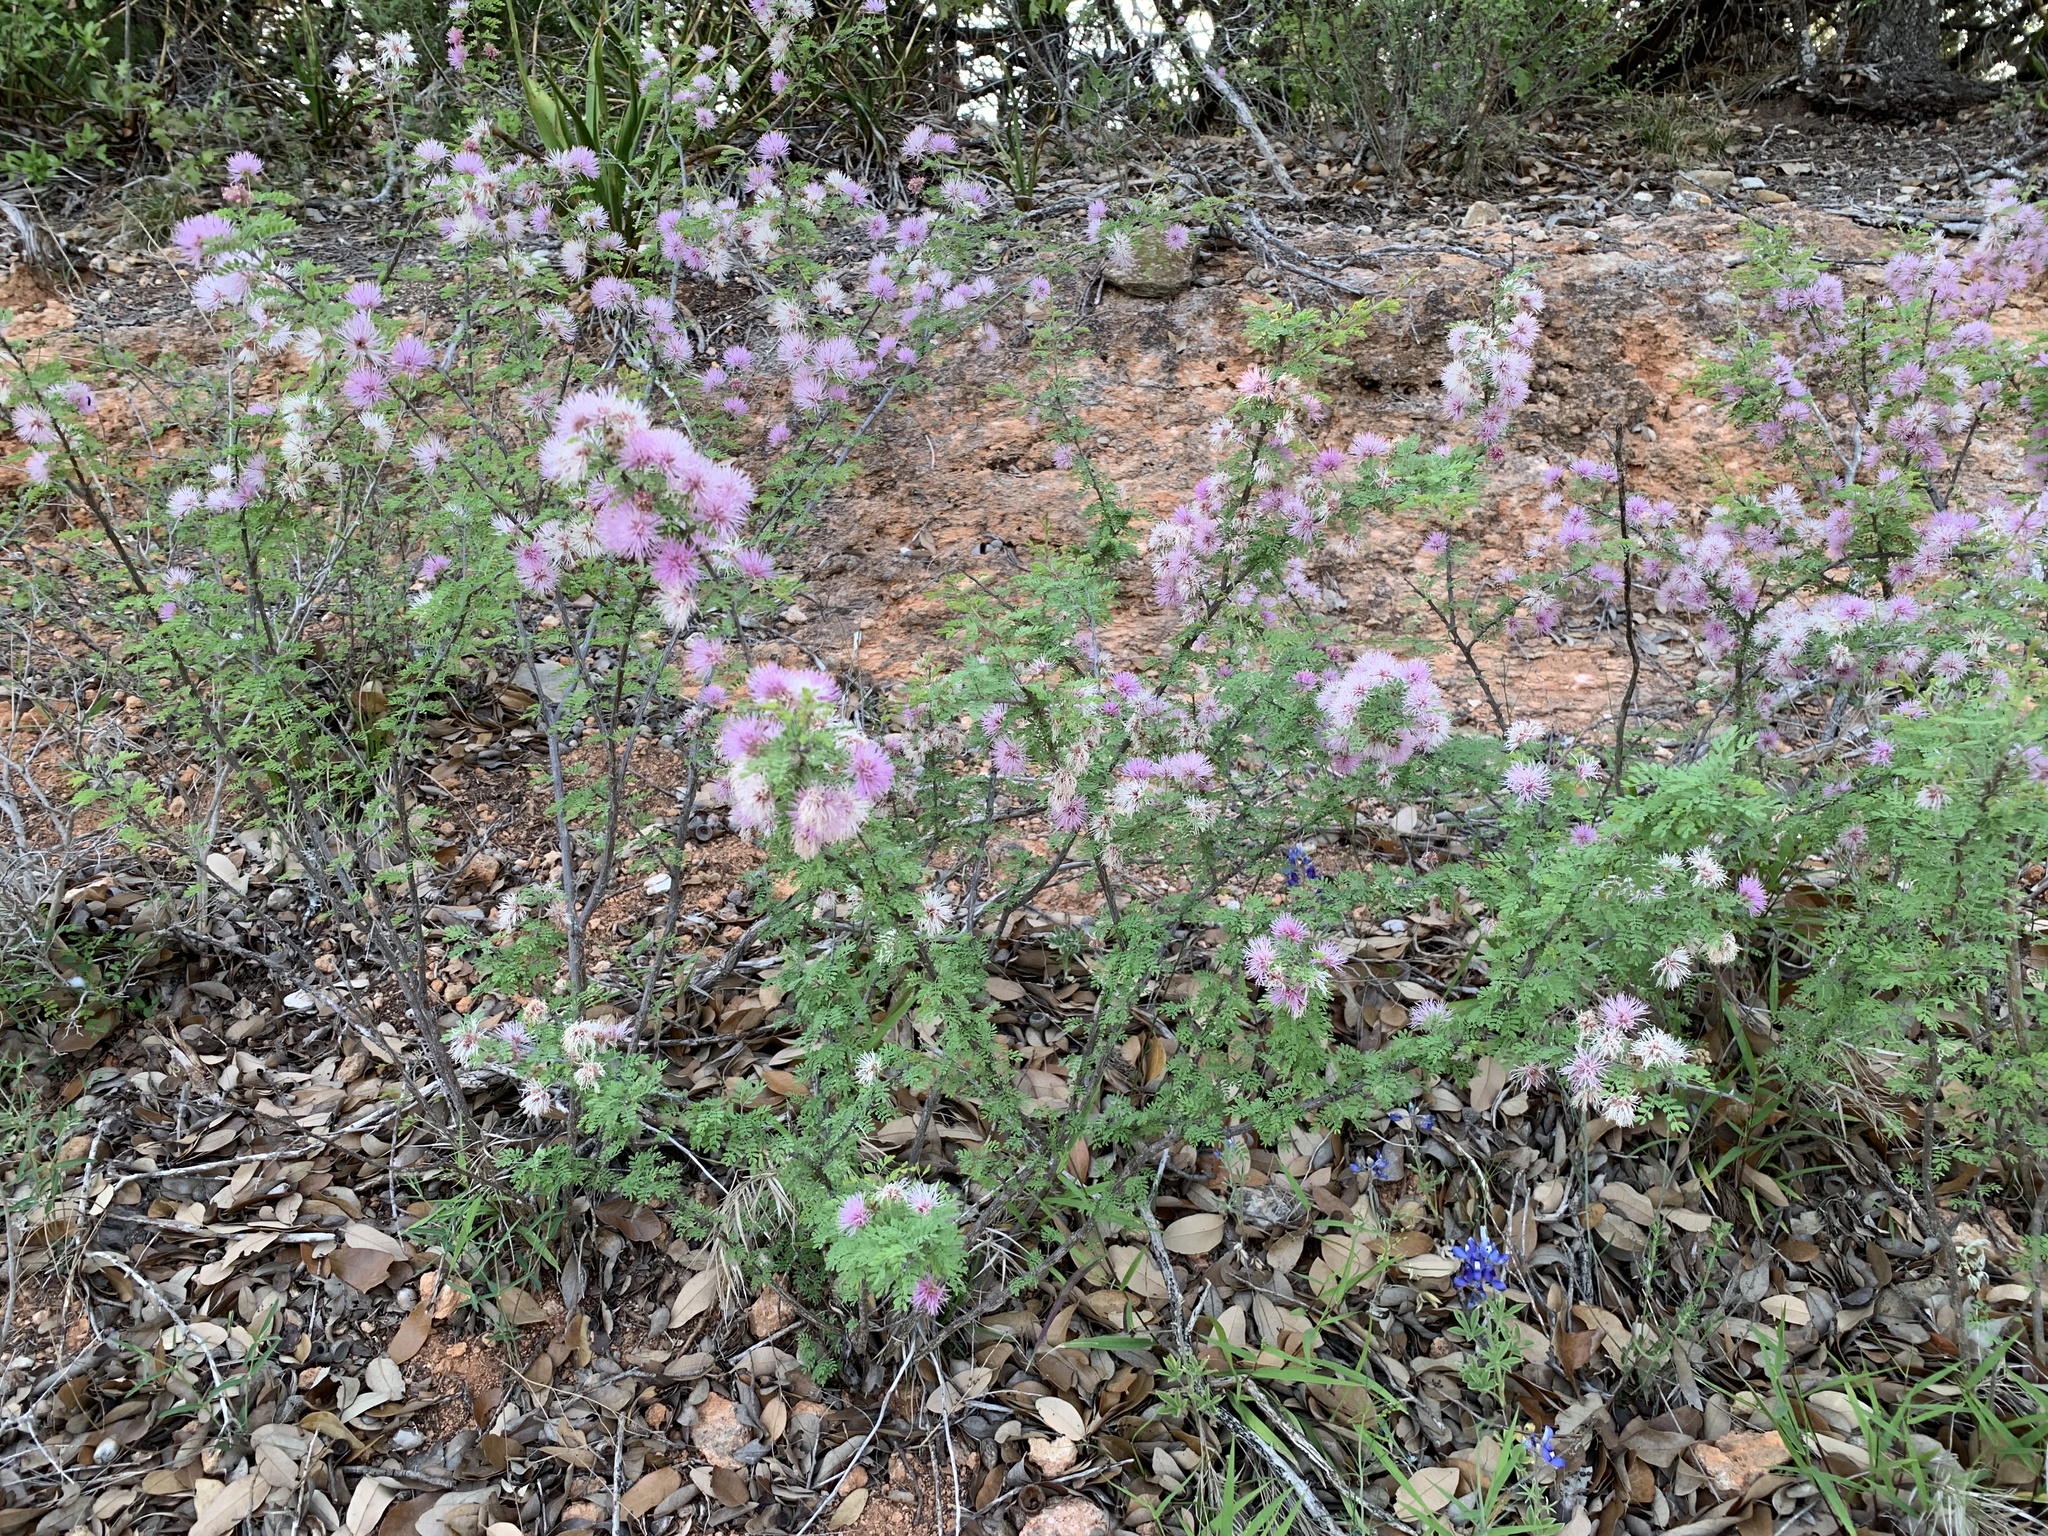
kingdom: Plantae
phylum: Tracheophyta
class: Magnoliopsida
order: Fabales
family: Fabaceae
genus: Mimosa
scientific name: Mimosa borealis
